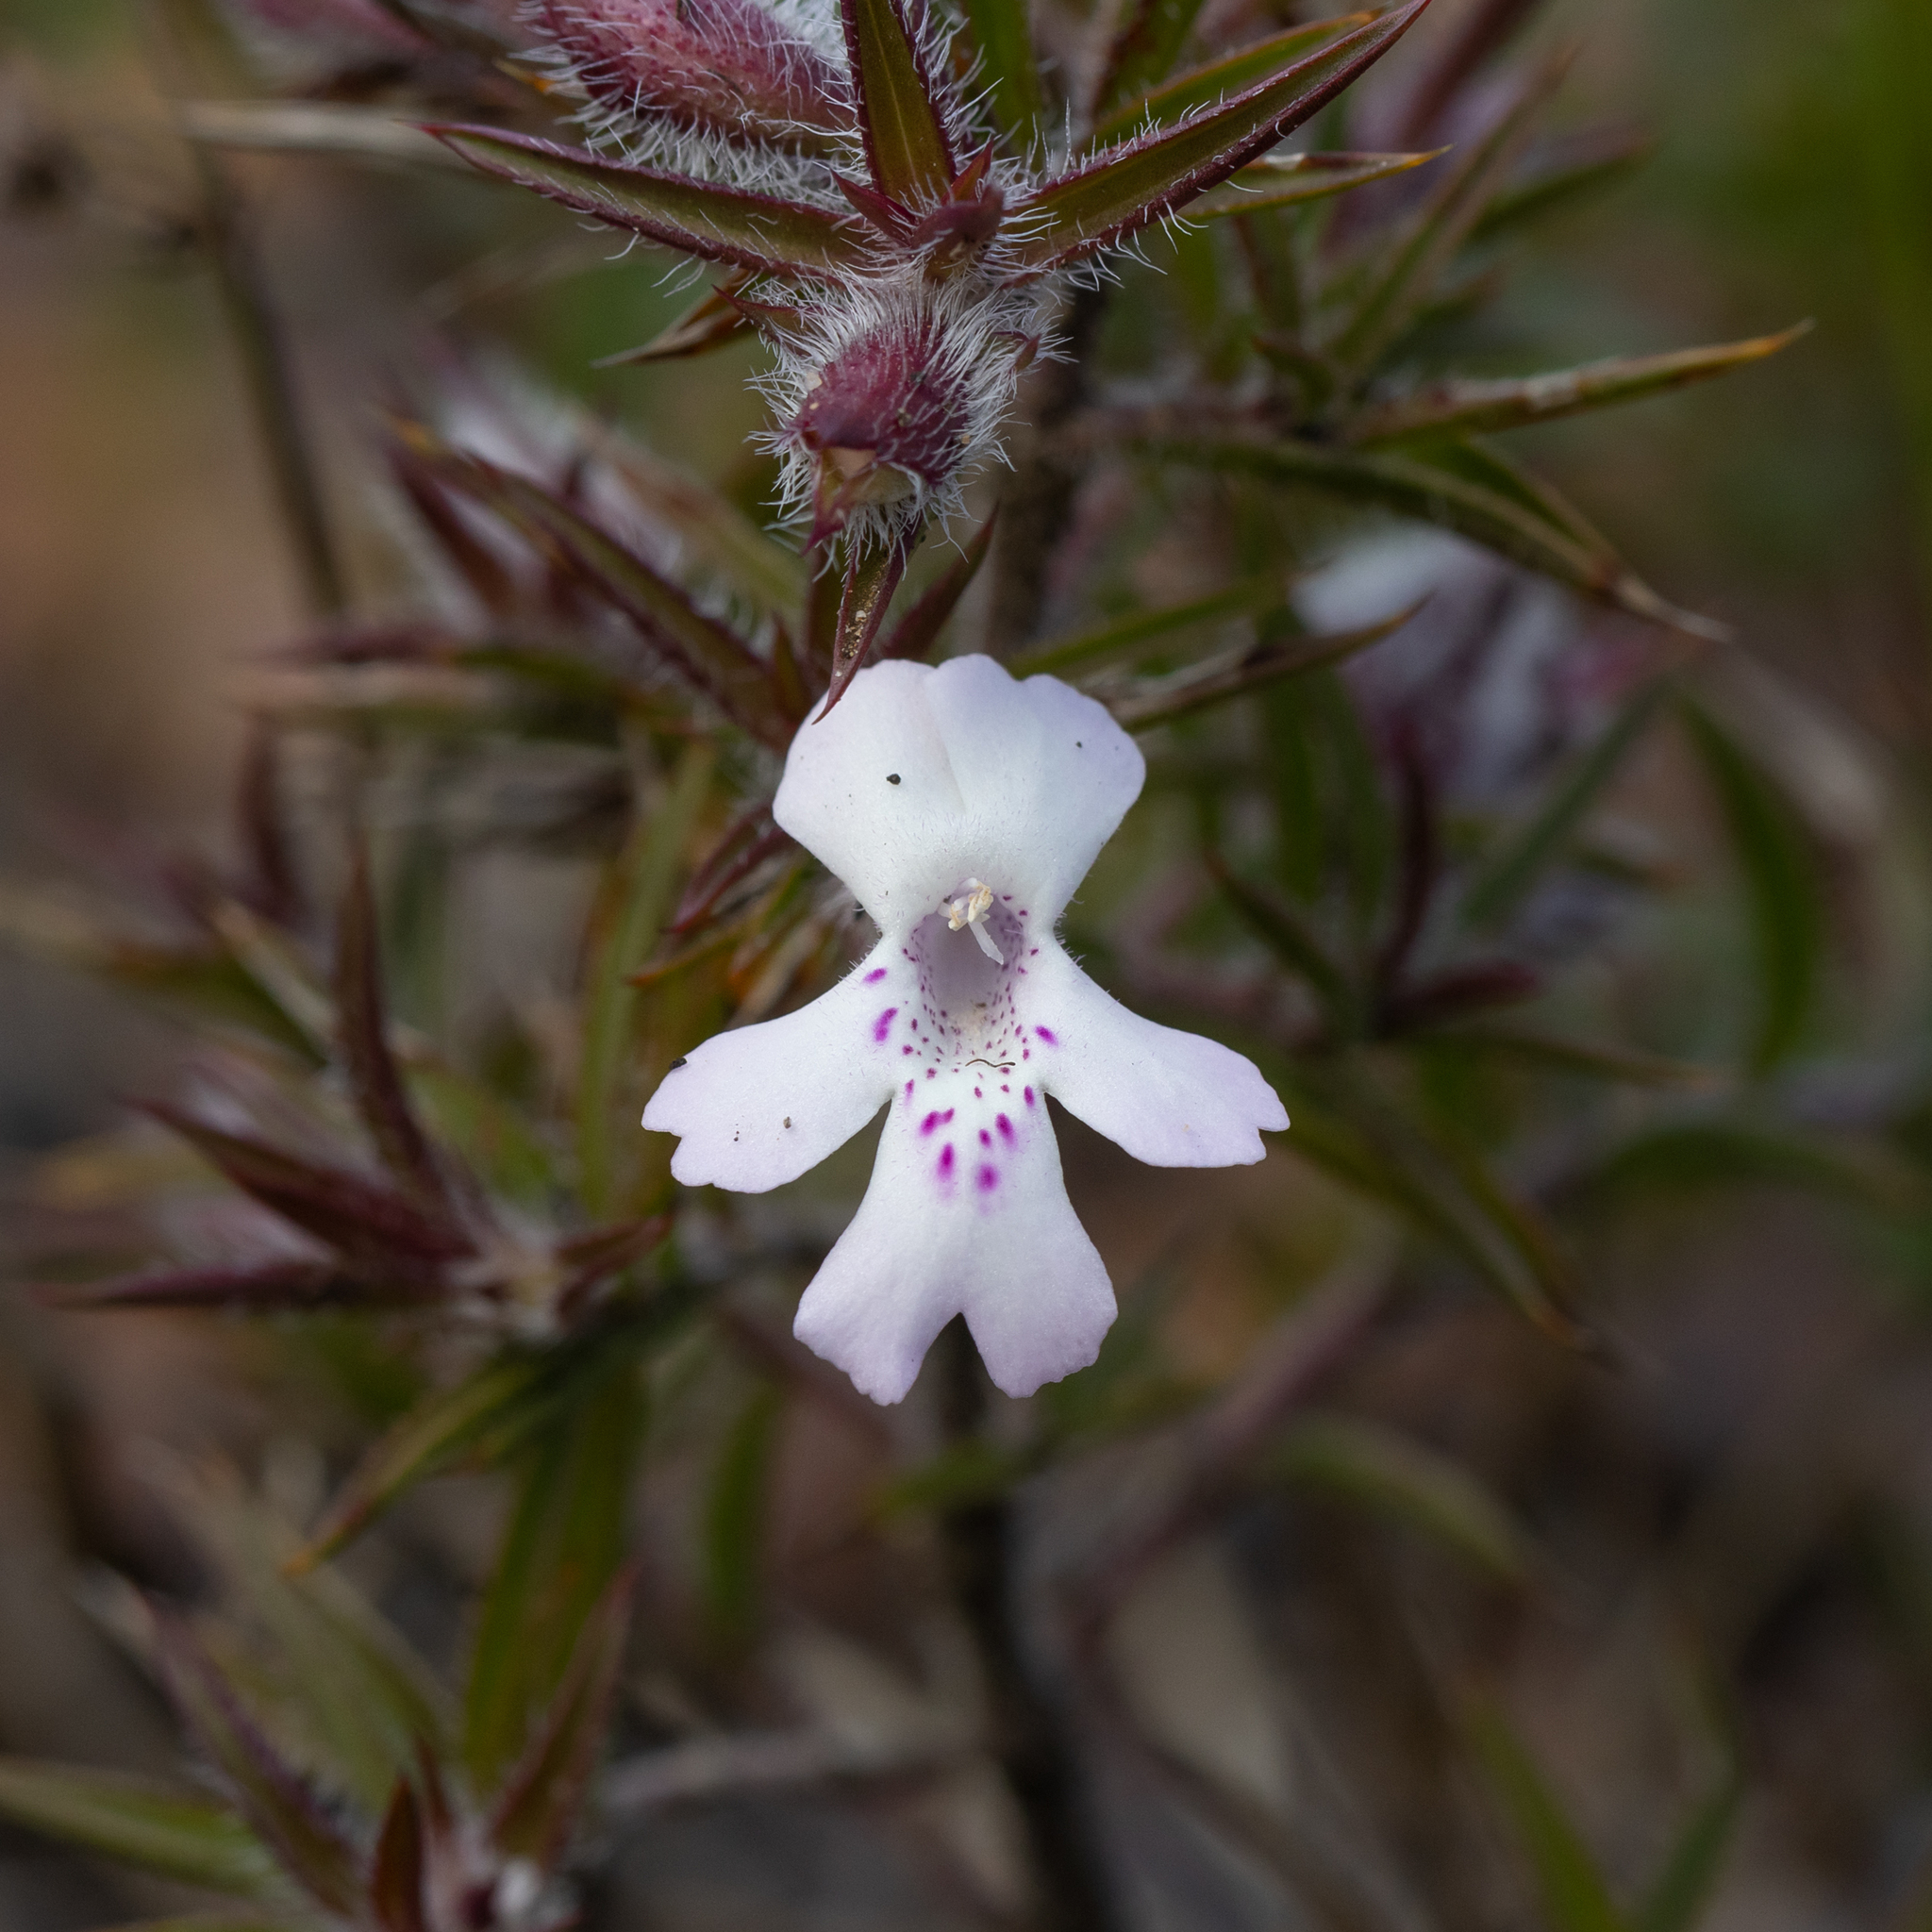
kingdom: Plantae
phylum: Tracheophyta
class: Magnoliopsida
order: Lamiales
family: Lamiaceae
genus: Hemiandra
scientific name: Hemiandra pungens
